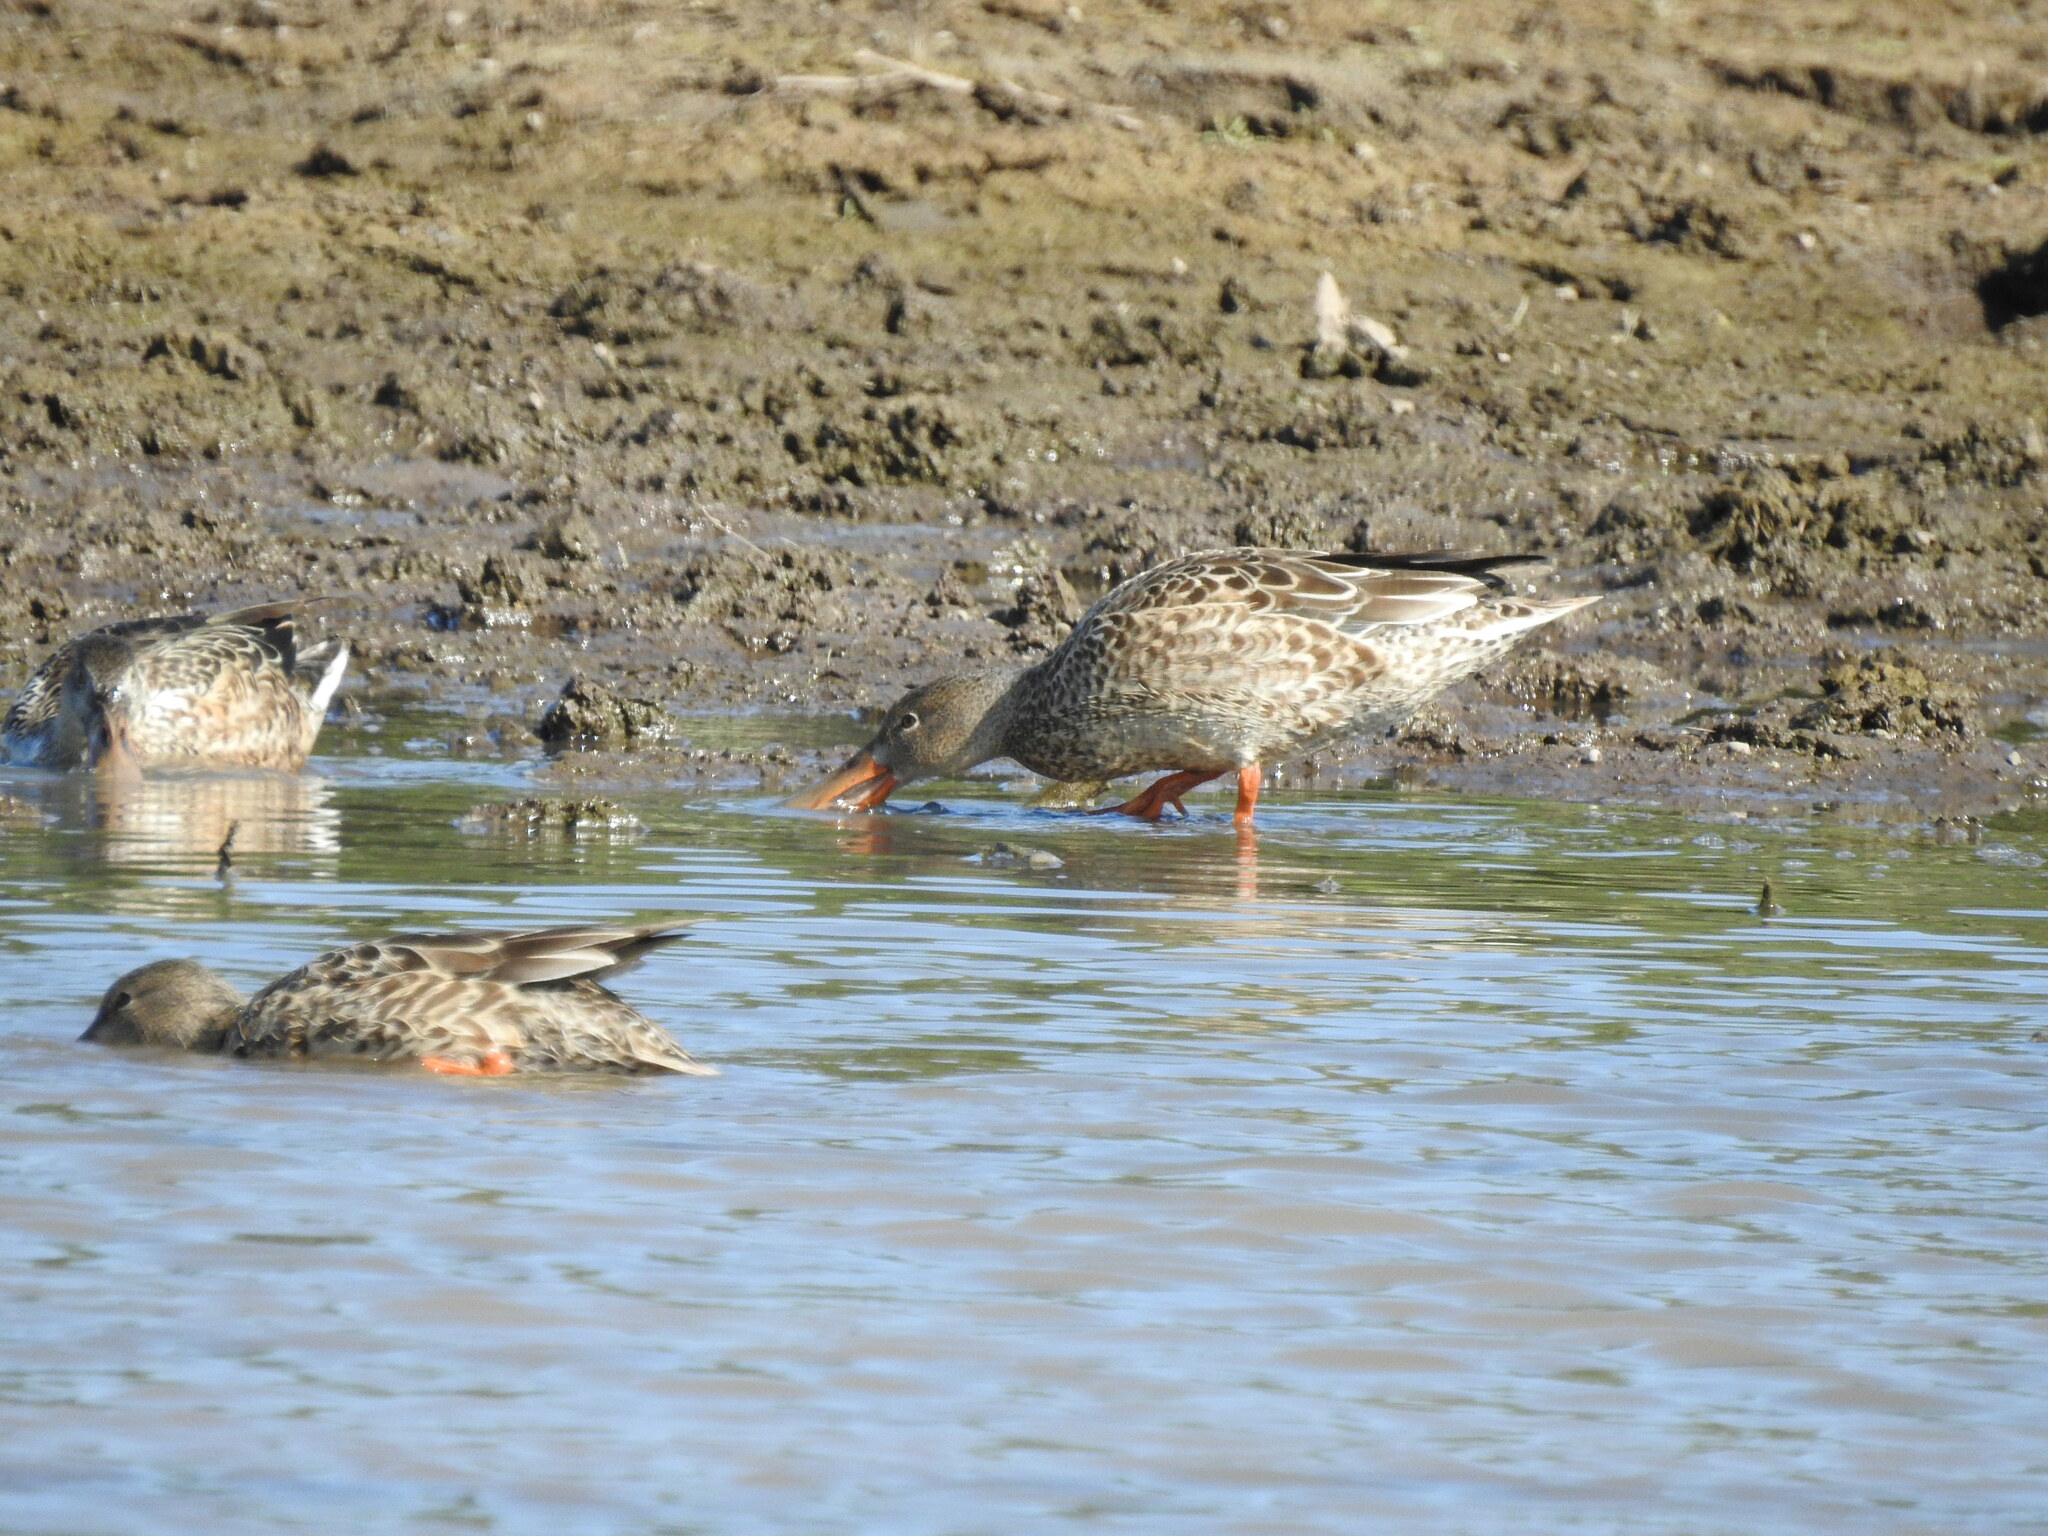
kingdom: Animalia
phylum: Chordata
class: Aves
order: Anseriformes
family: Anatidae
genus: Spatula
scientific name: Spatula clypeata
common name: Northern shoveler
